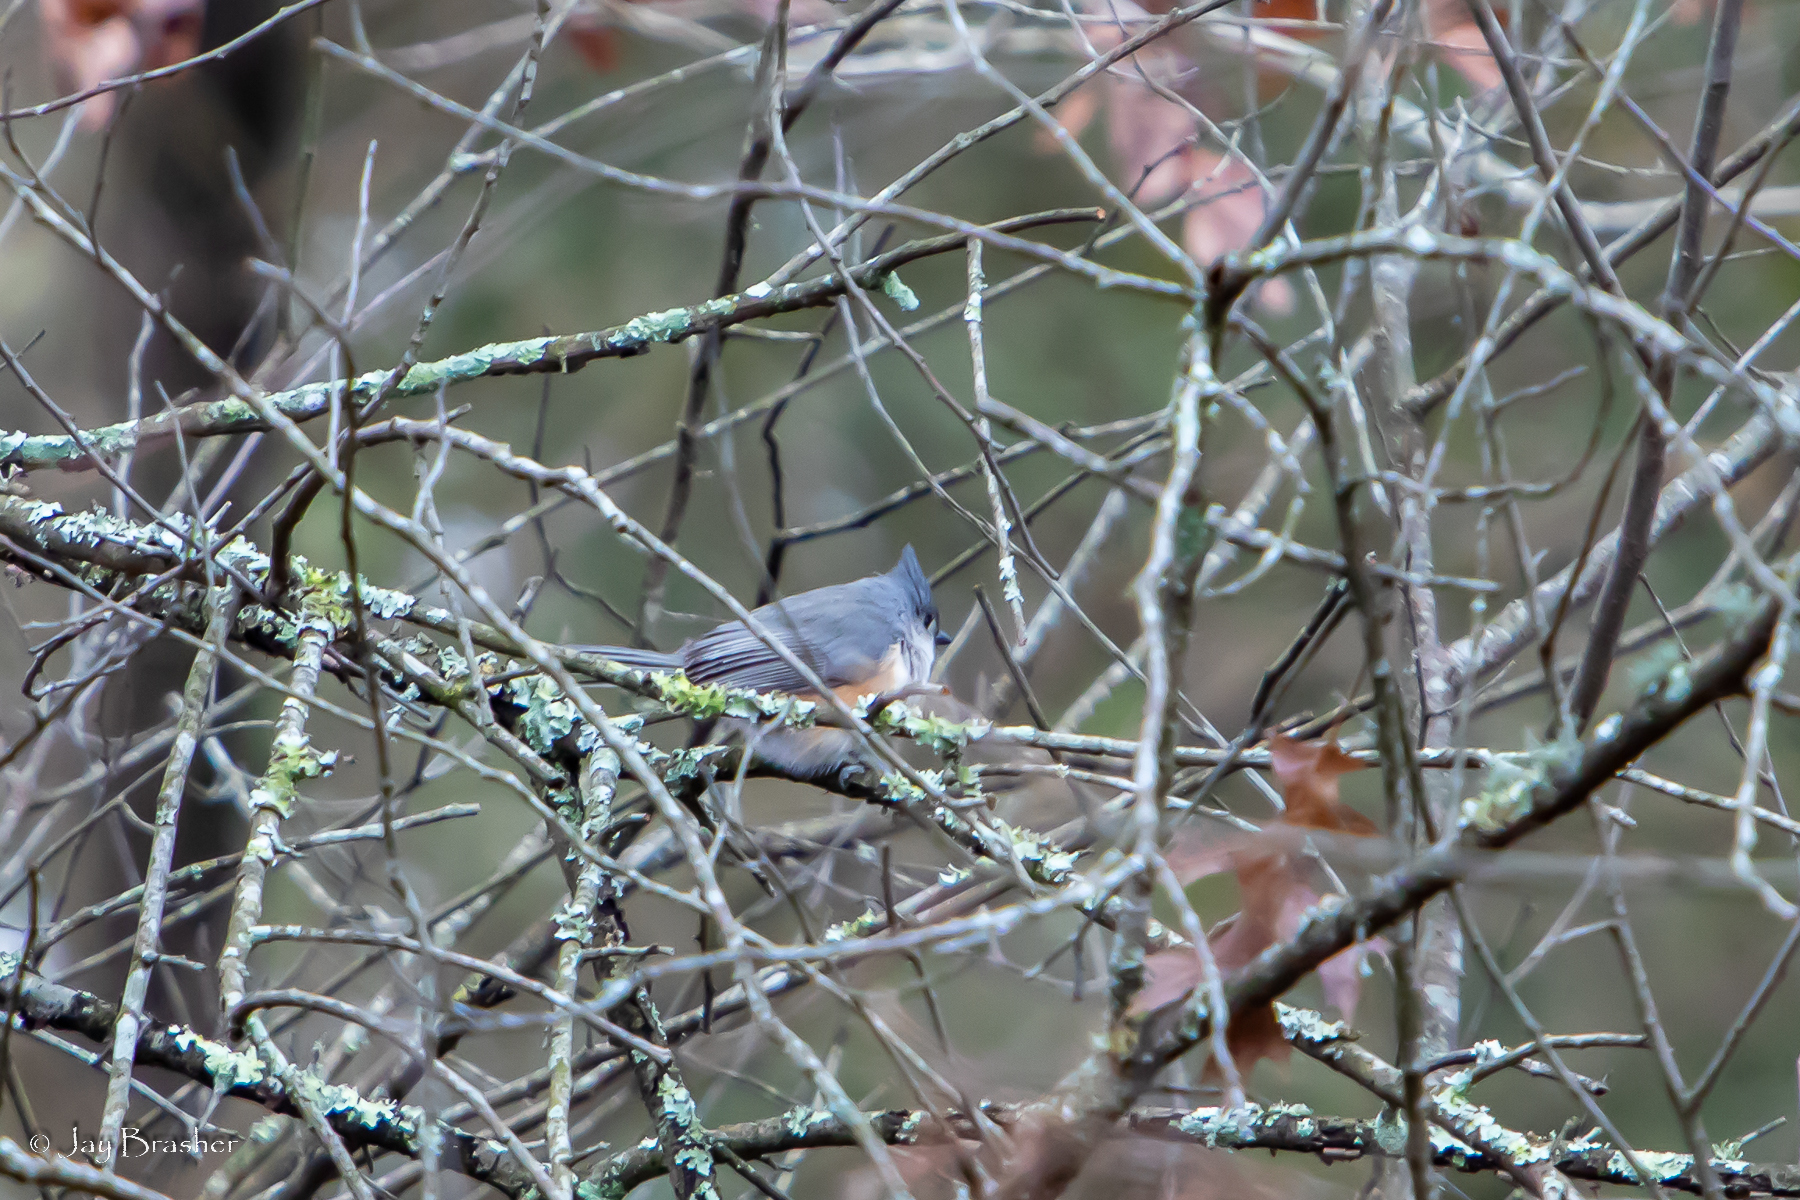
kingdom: Animalia
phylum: Chordata
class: Aves
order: Passeriformes
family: Paridae
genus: Baeolophus
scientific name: Baeolophus bicolor
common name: Tufted titmouse
